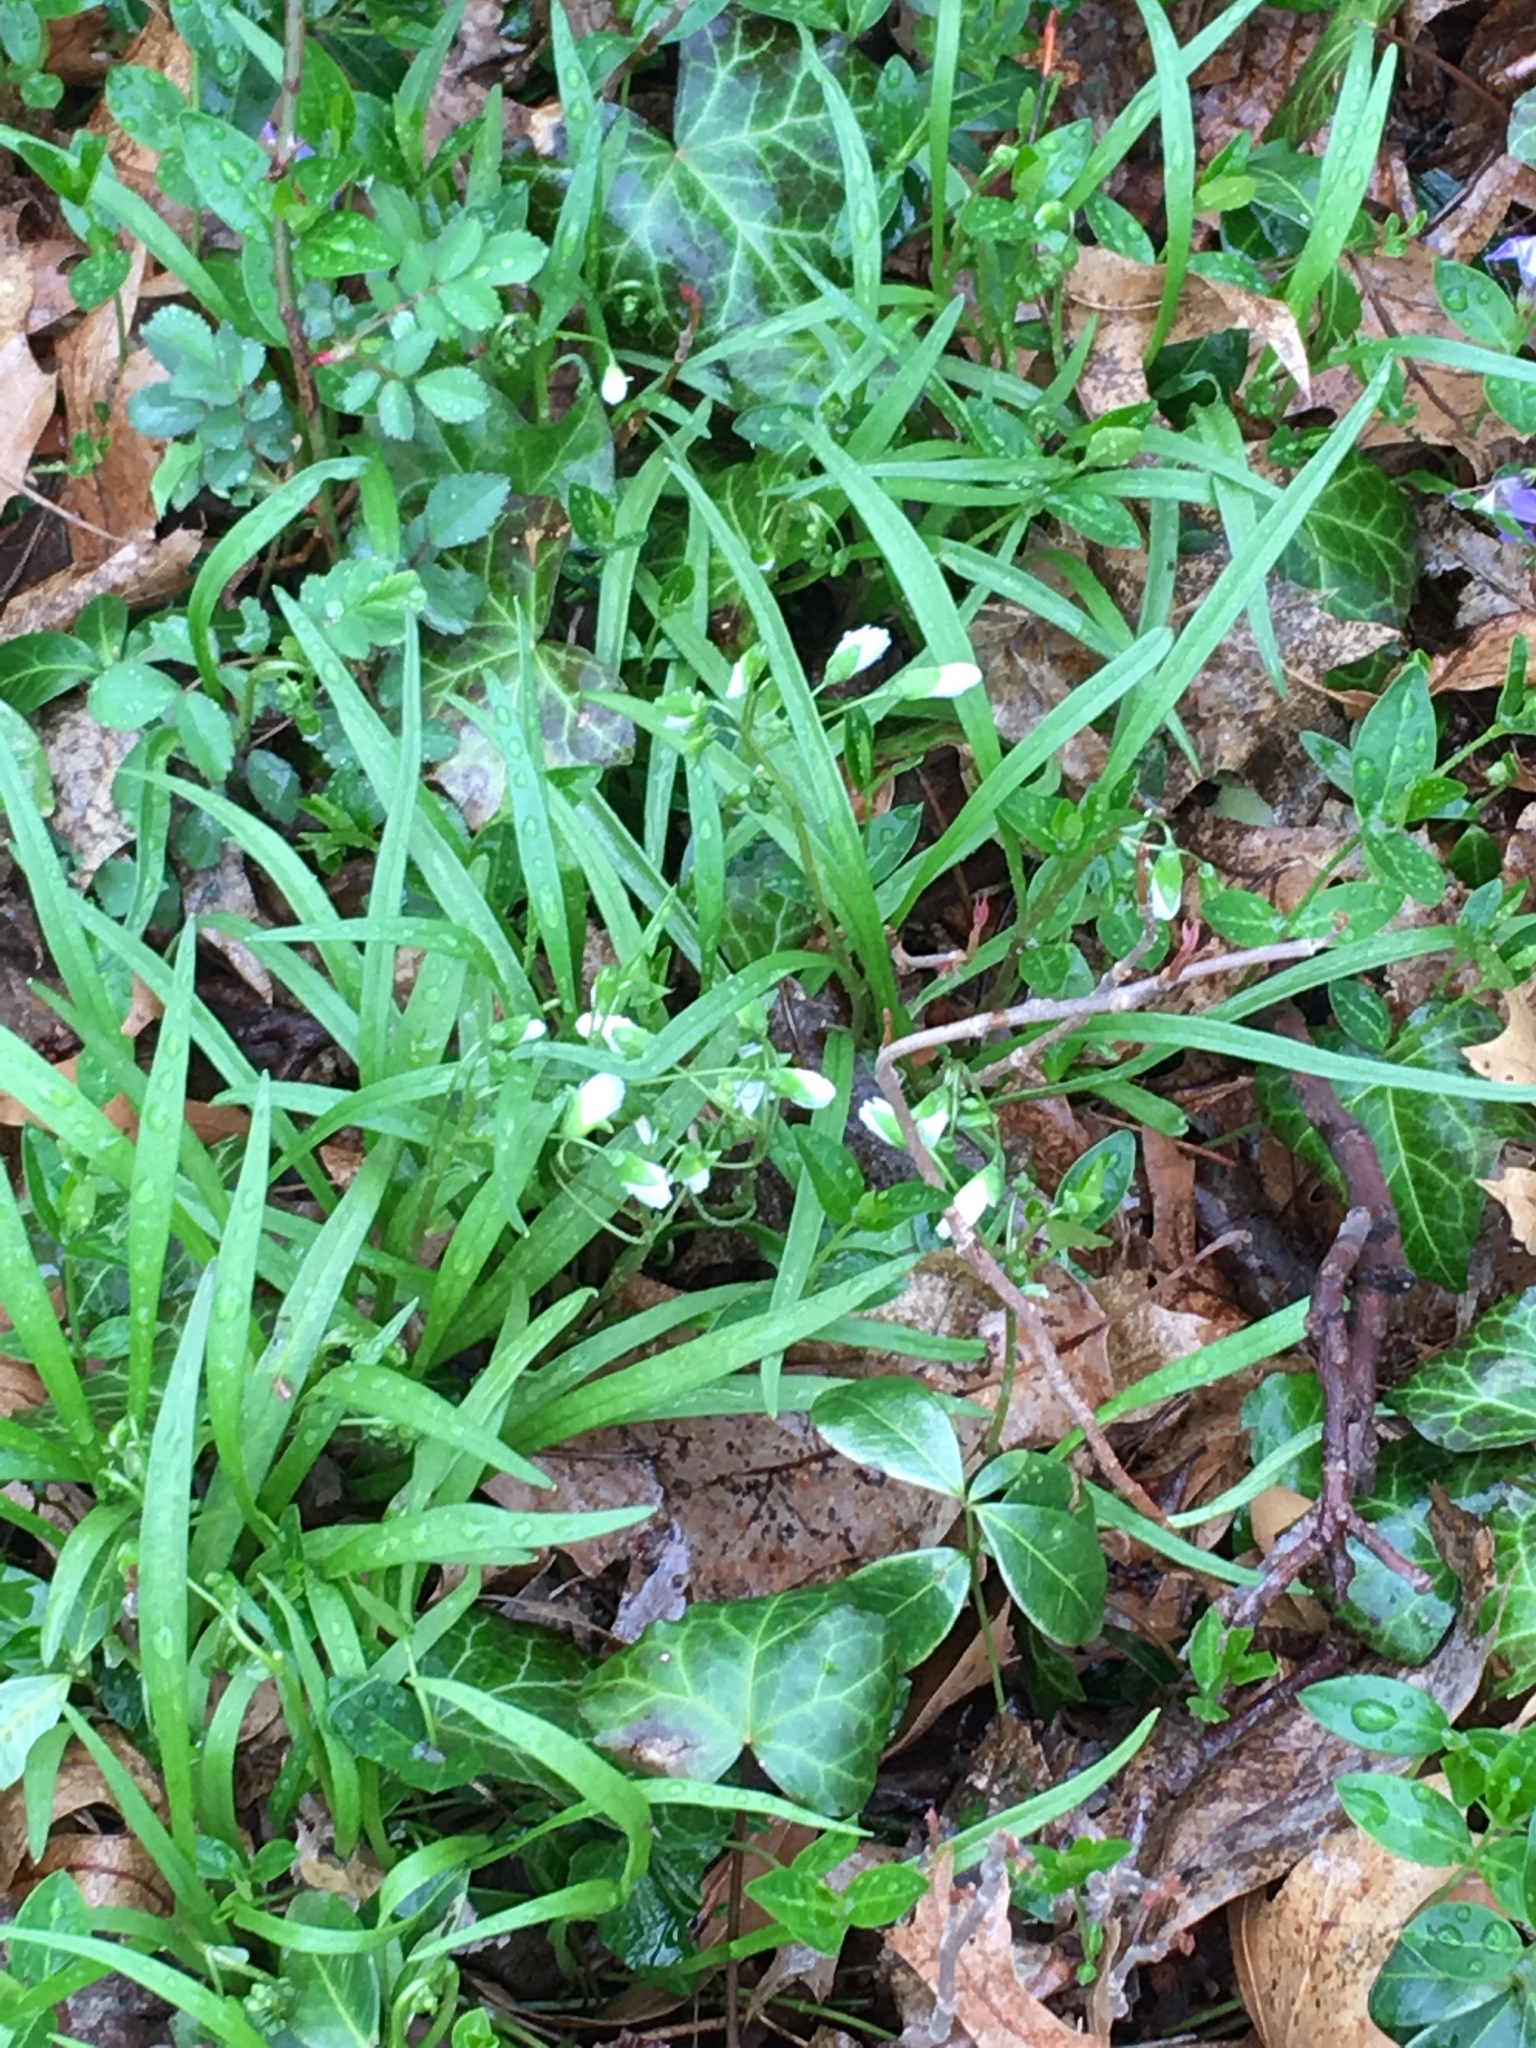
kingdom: Plantae
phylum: Tracheophyta
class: Magnoliopsida
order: Caryophyllales
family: Montiaceae
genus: Claytonia
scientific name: Claytonia virginica
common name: Virginia springbeauty
